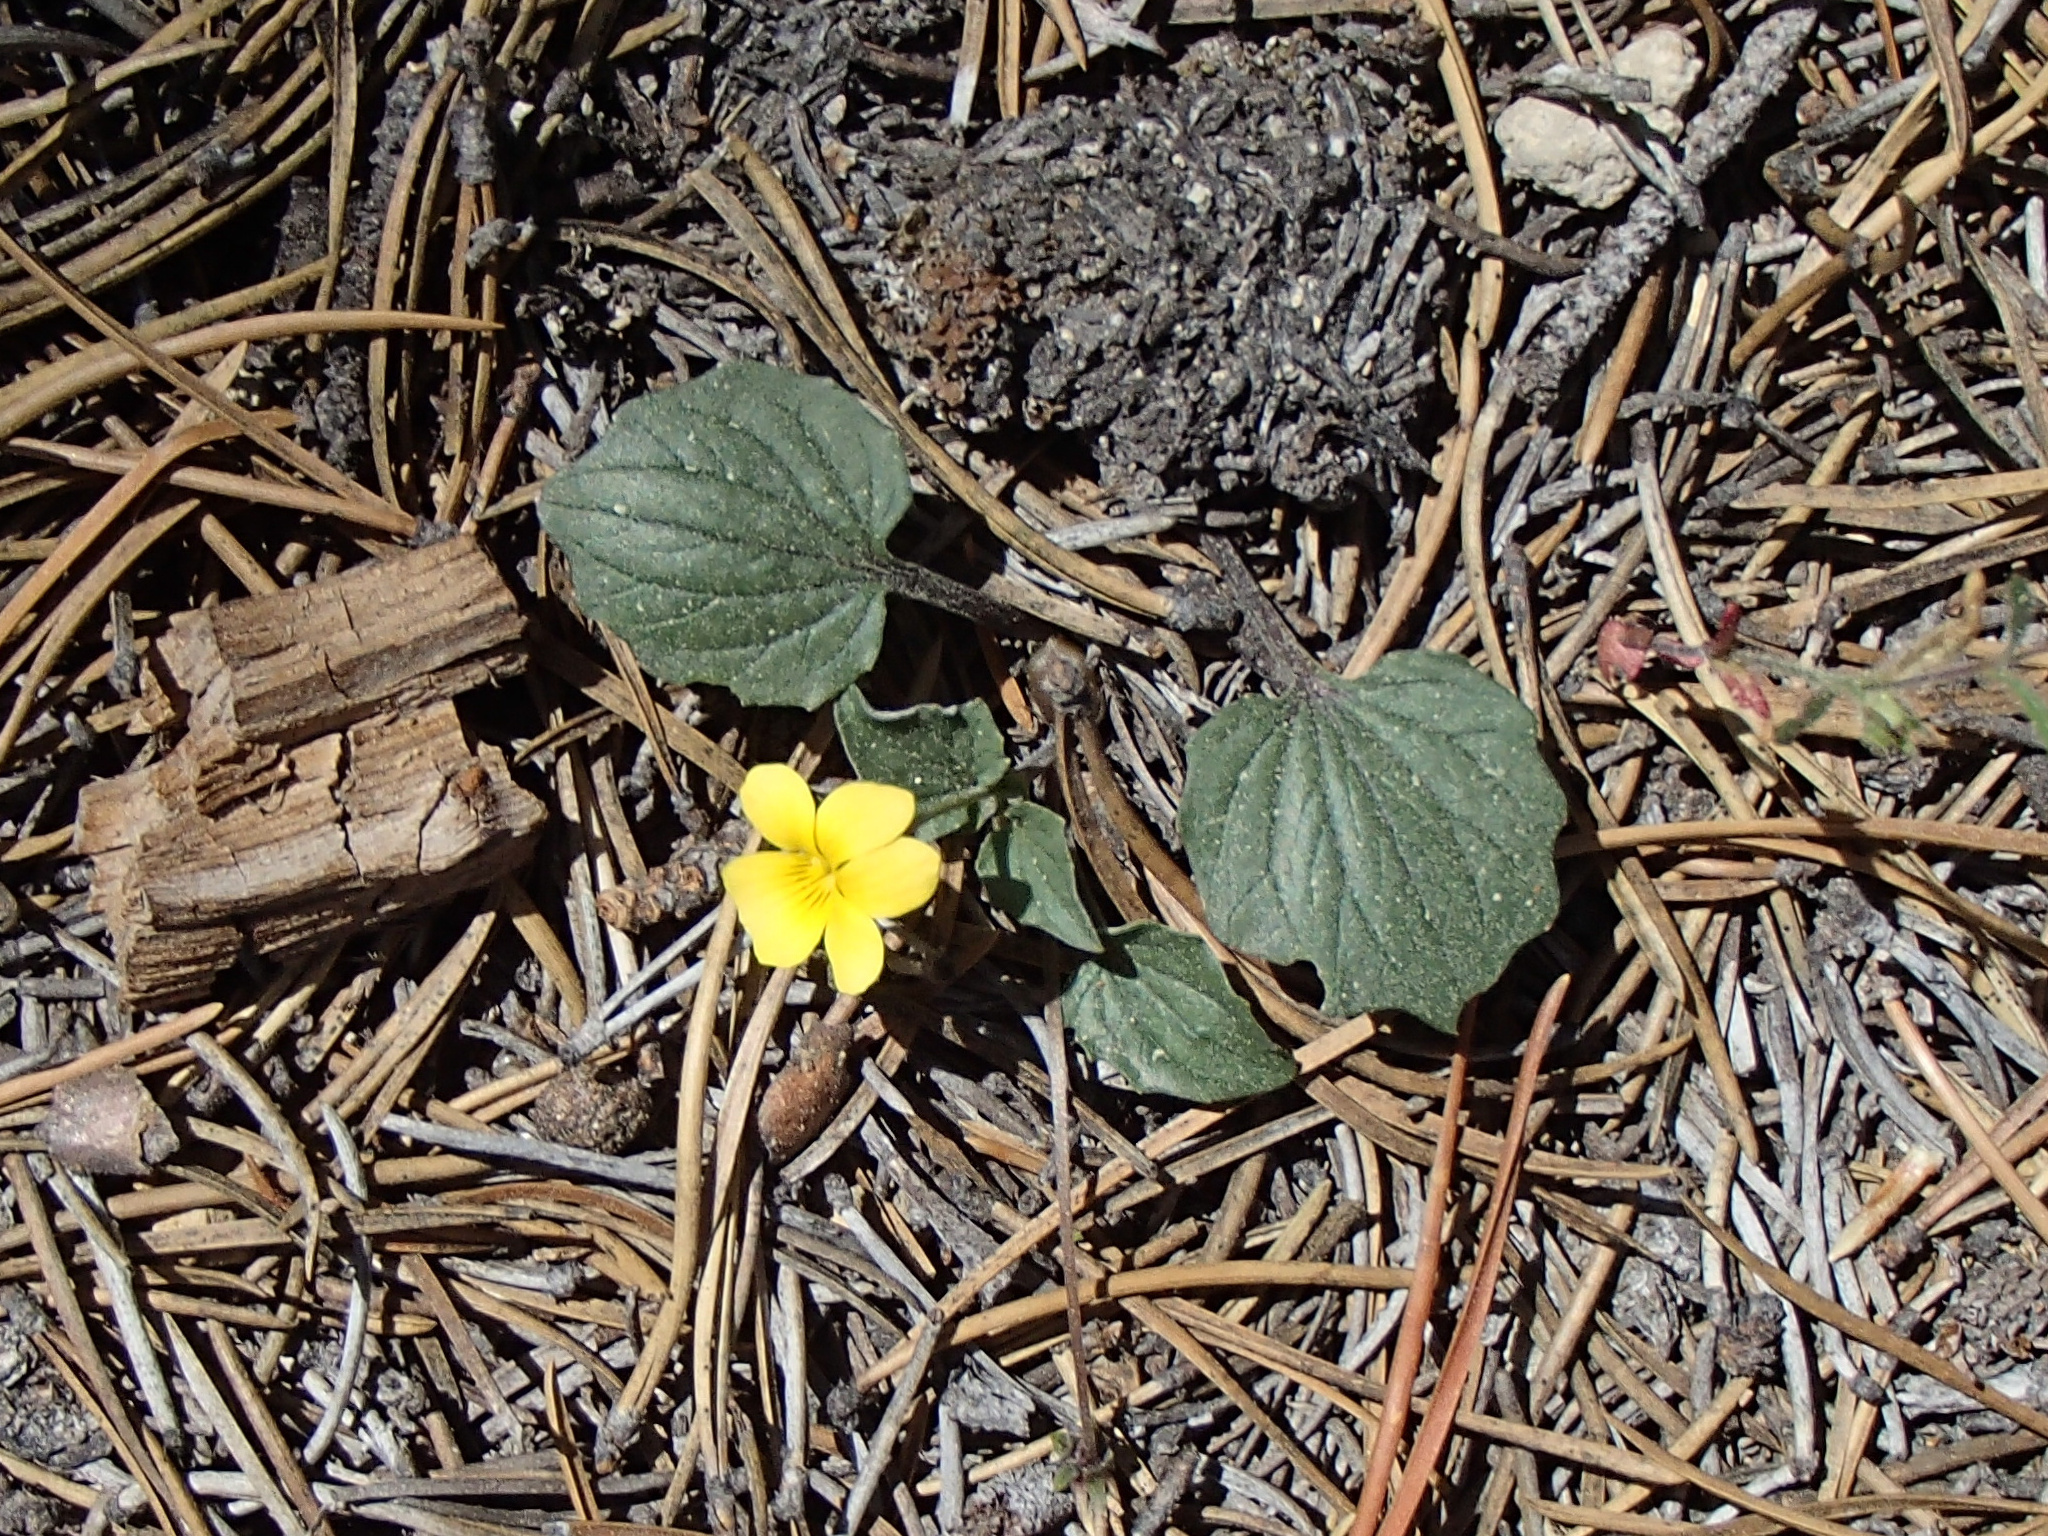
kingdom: Plantae
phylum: Tracheophyta
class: Magnoliopsida
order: Malpighiales
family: Violaceae
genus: Viola
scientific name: Viola purpurea
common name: Pine violet
